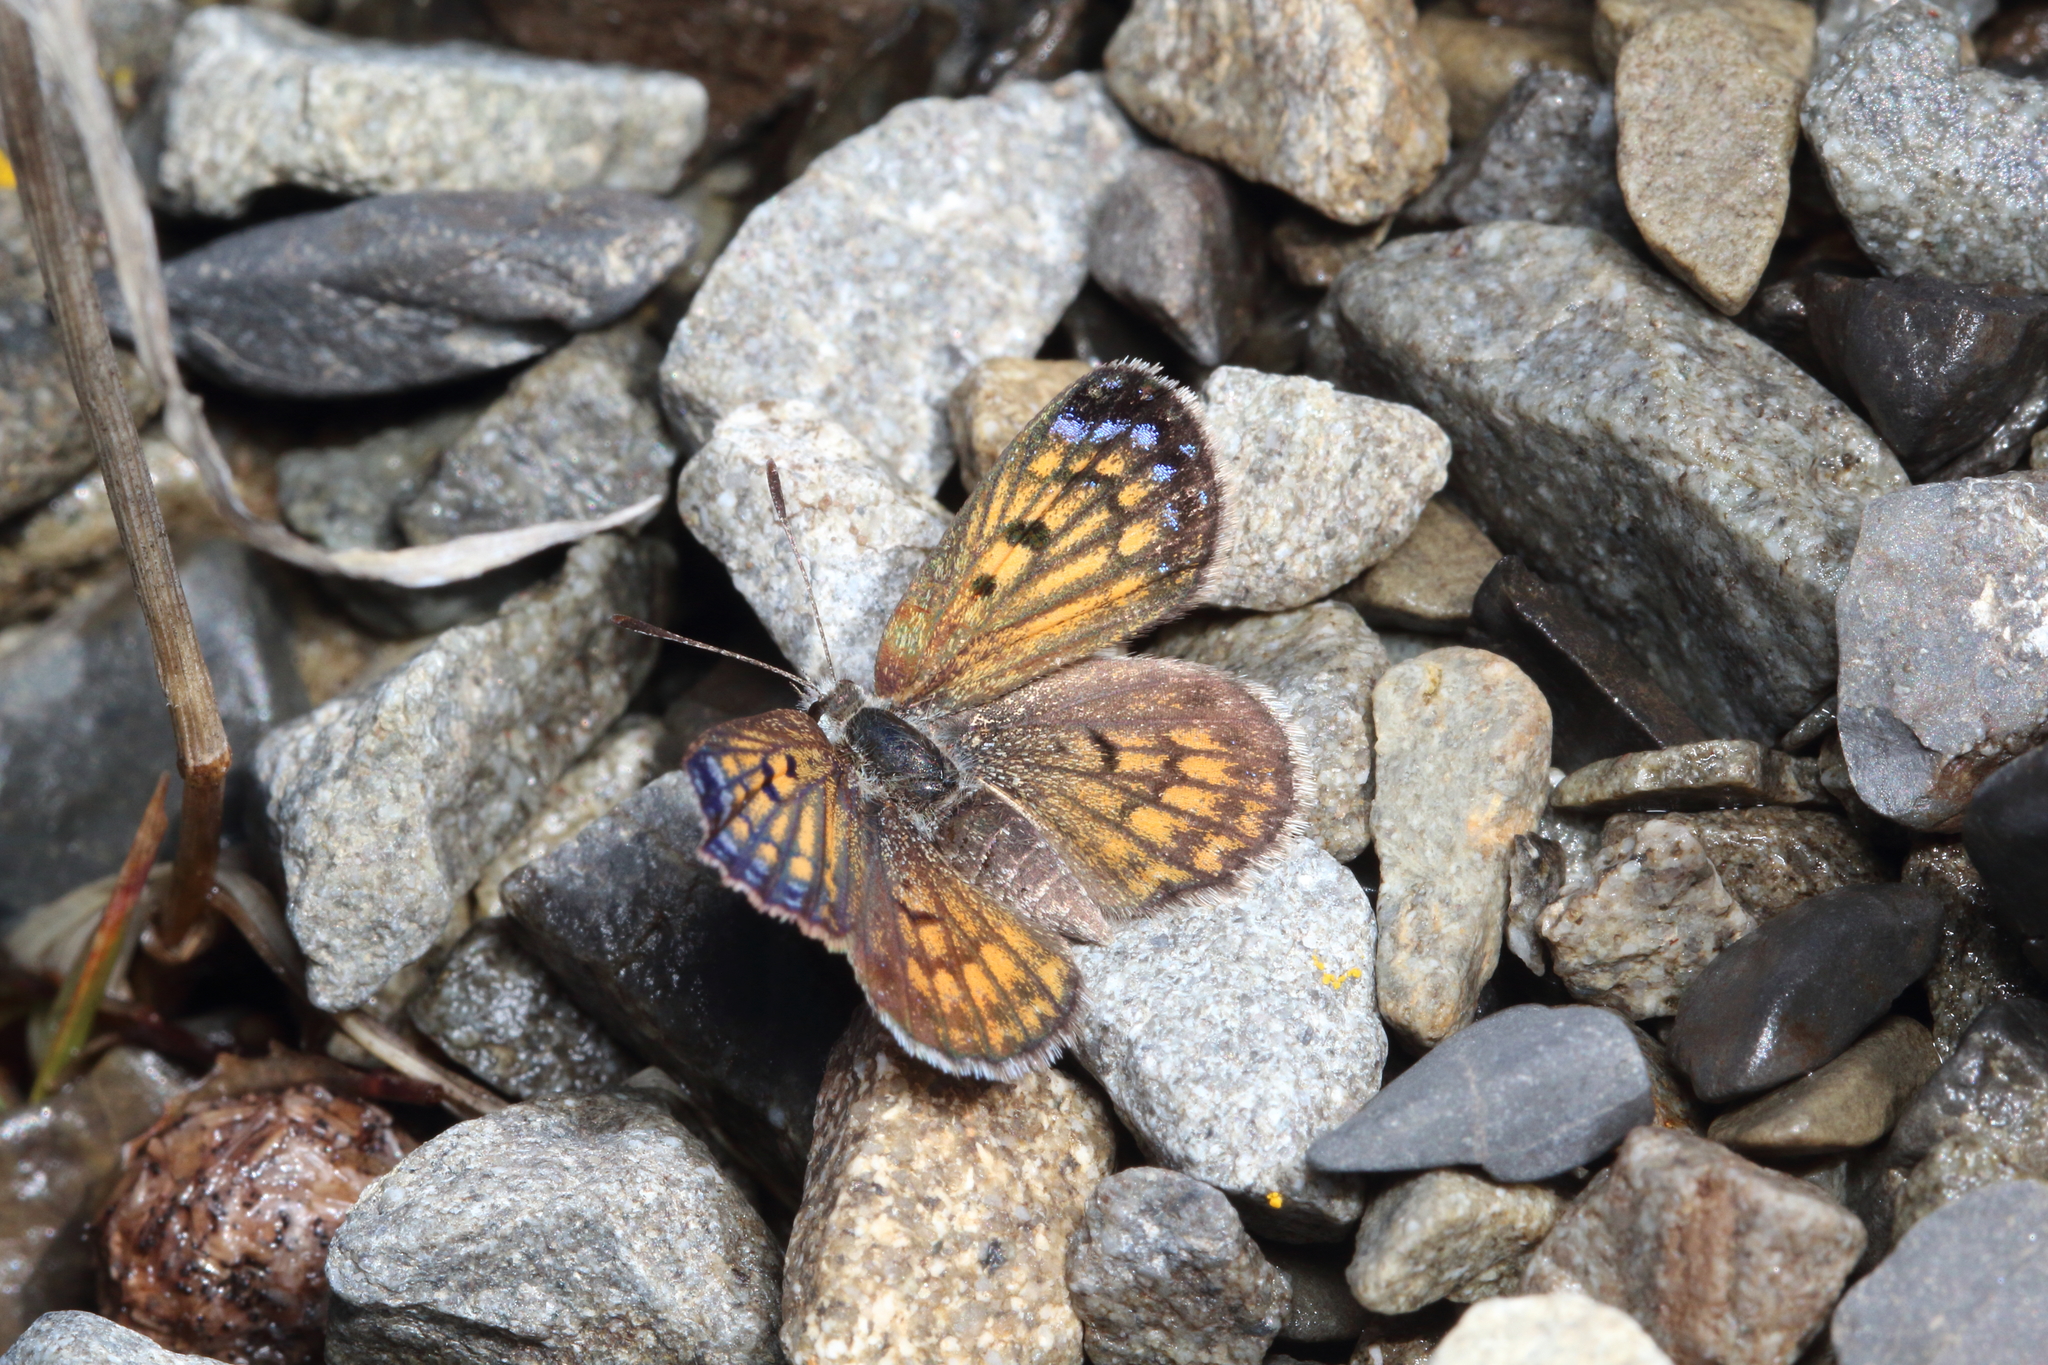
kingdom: Animalia
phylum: Arthropoda
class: Insecta
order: Lepidoptera
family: Lycaenidae
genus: Lycaena
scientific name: Lycaena boldenarum
